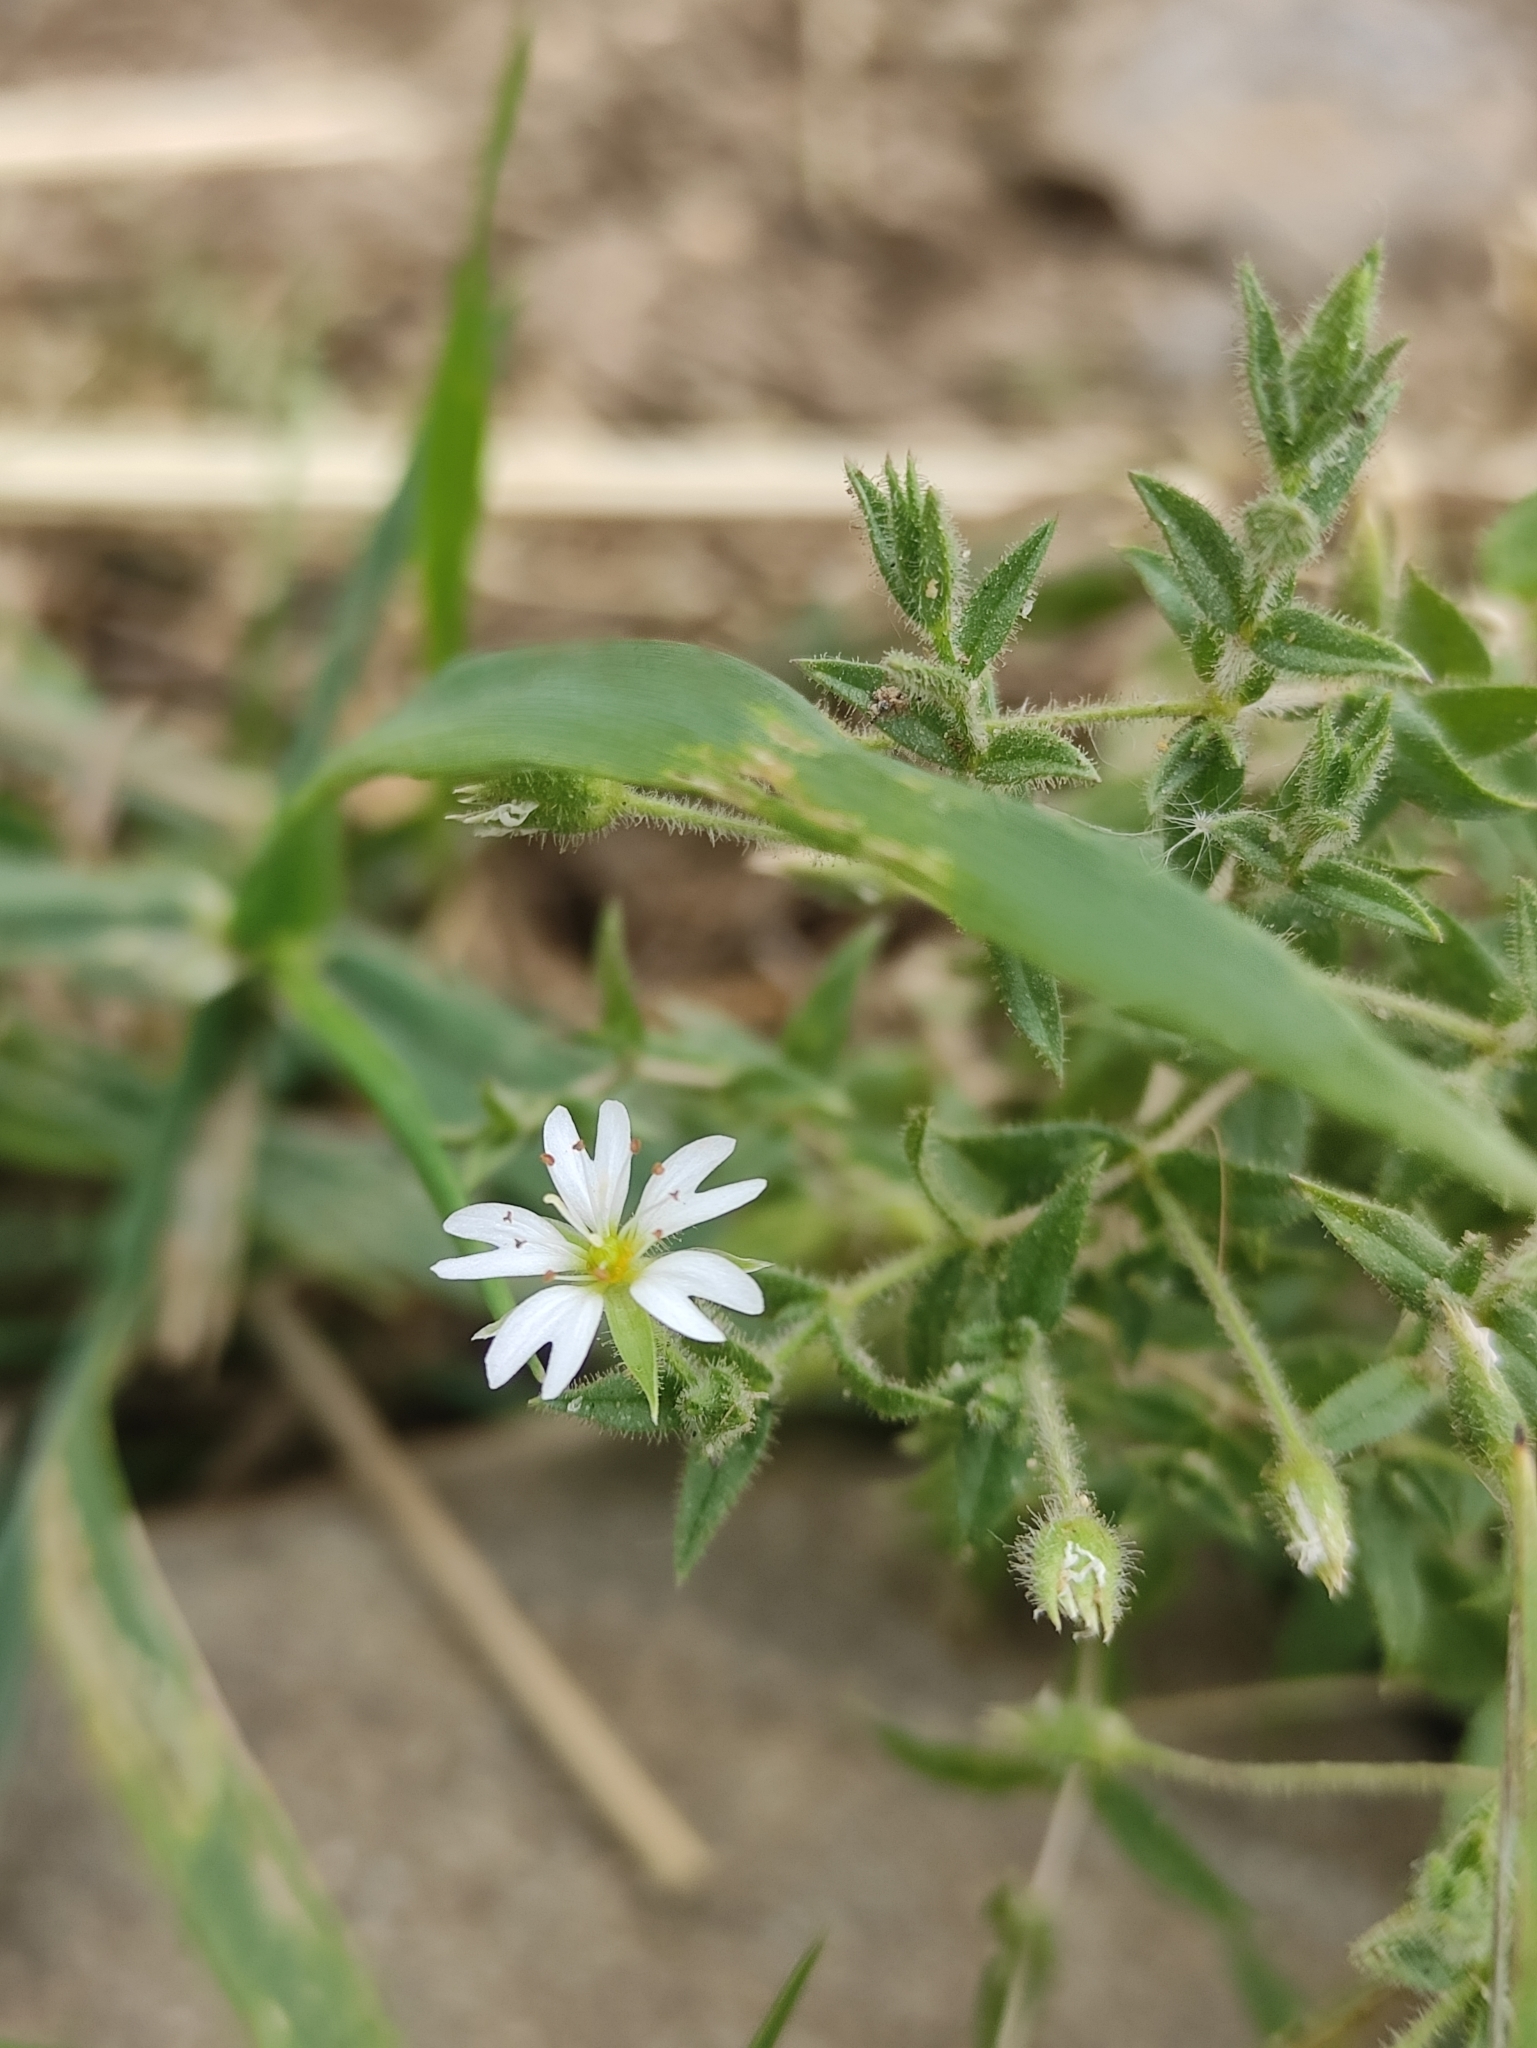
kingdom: Plantae
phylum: Tracheophyta
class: Magnoliopsida
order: Caryophyllales
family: Caryophyllaceae
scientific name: Caryophyllaceae
